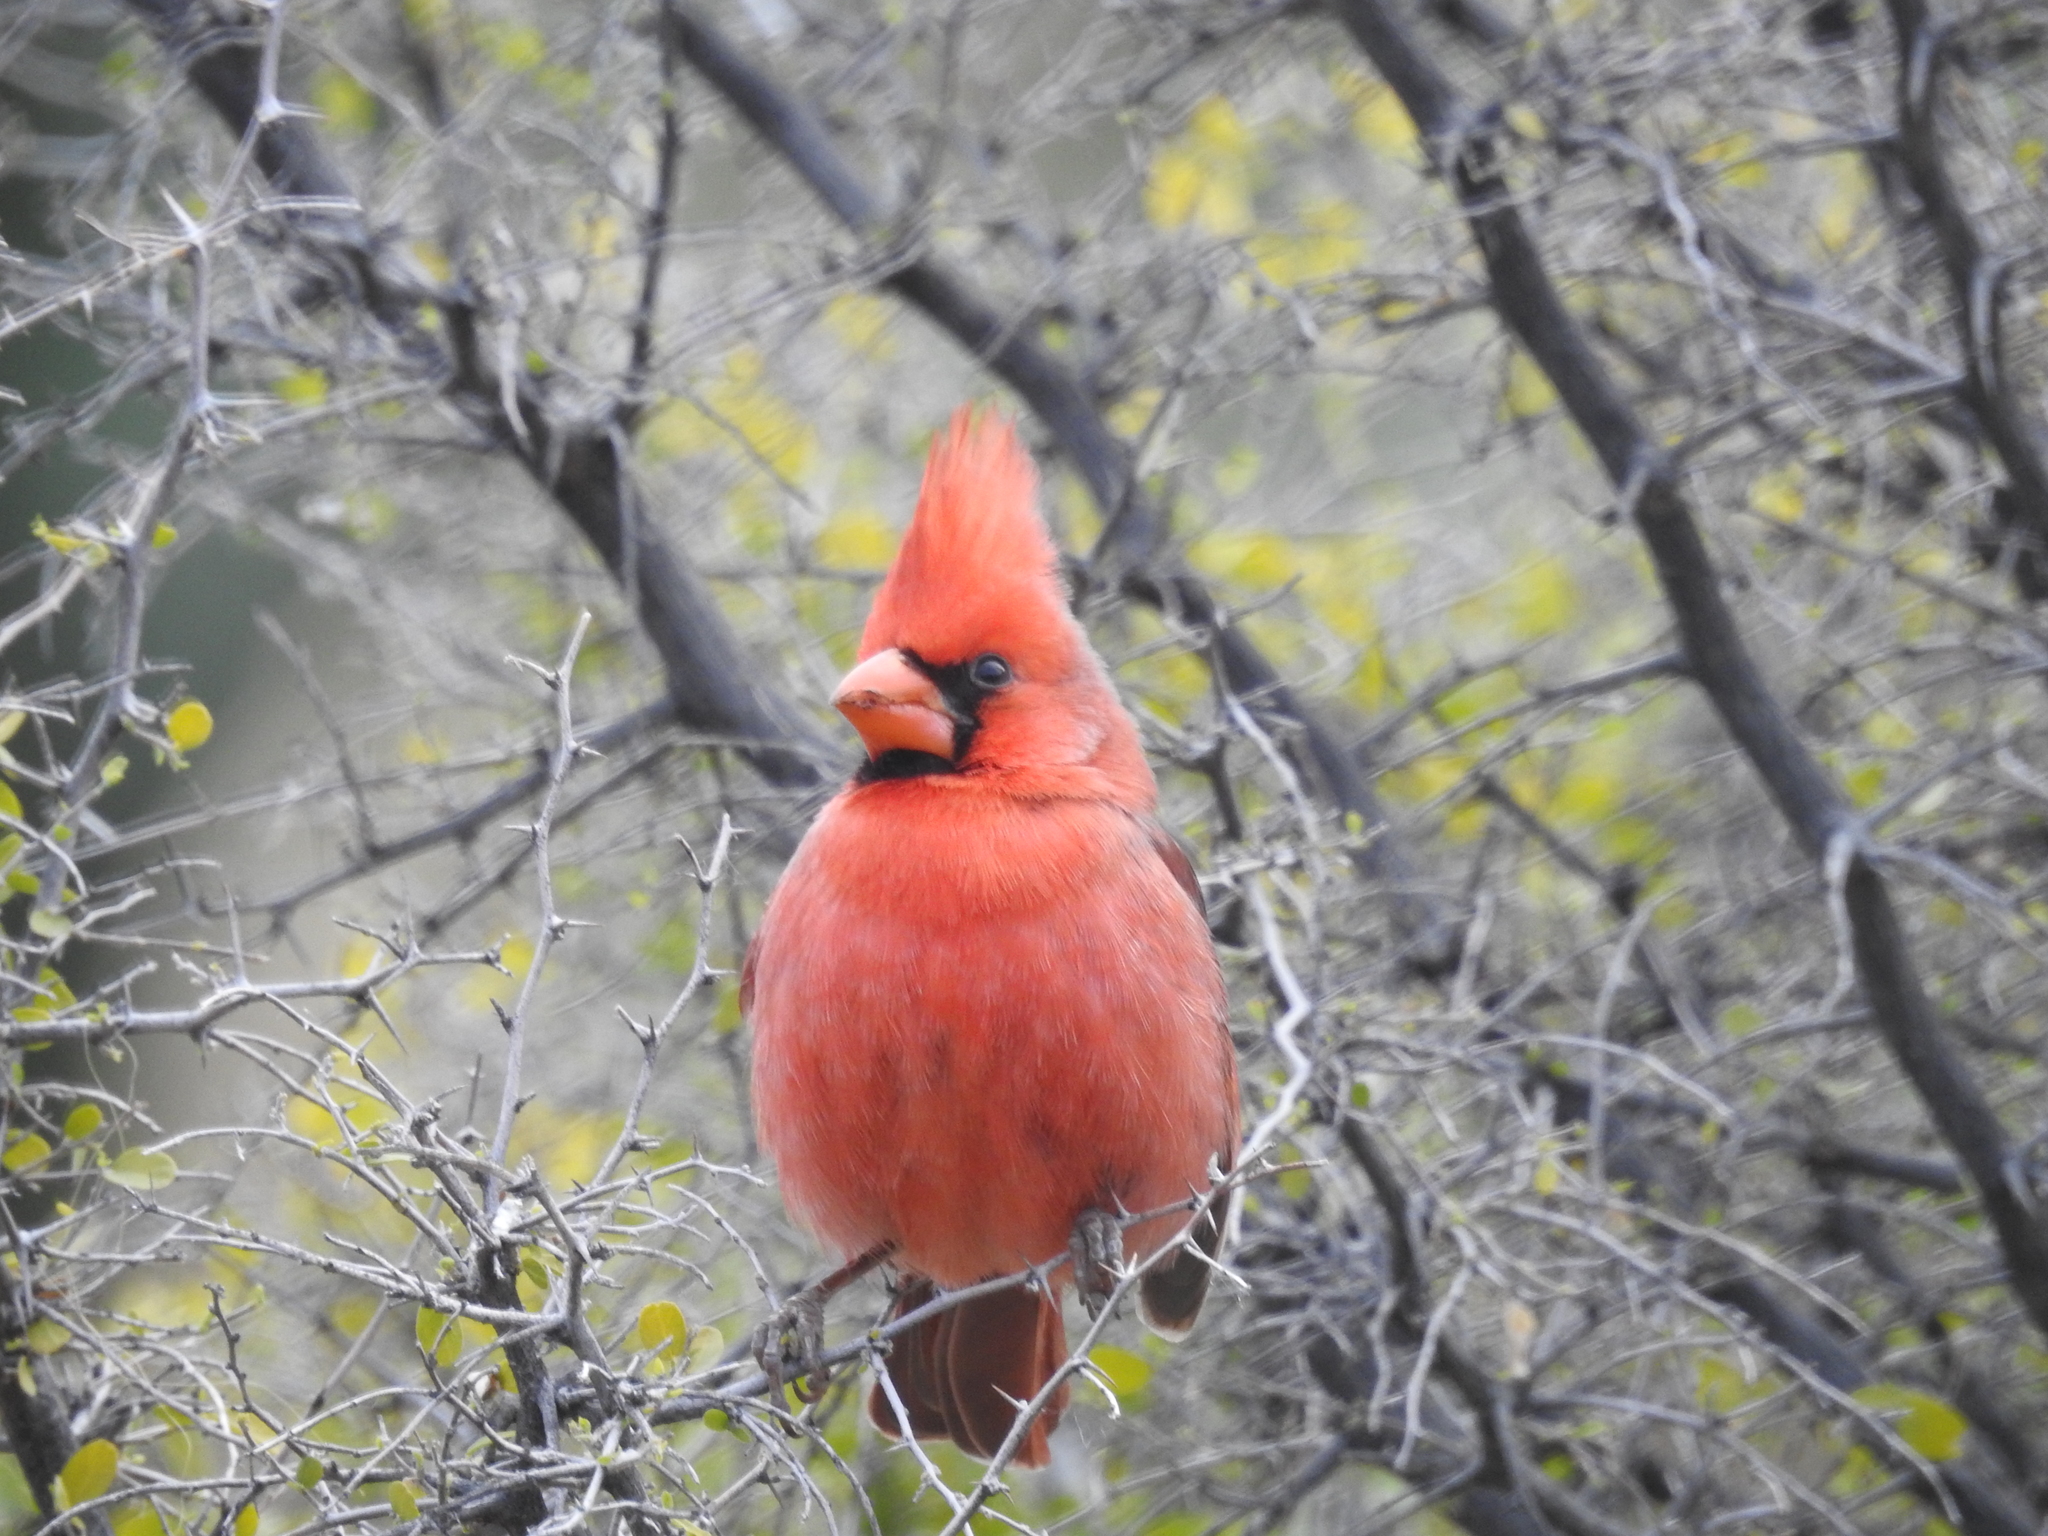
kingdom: Animalia
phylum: Chordata
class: Aves
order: Passeriformes
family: Cardinalidae
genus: Cardinalis
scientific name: Cardinalis cardinalis
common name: Northern cardinal
